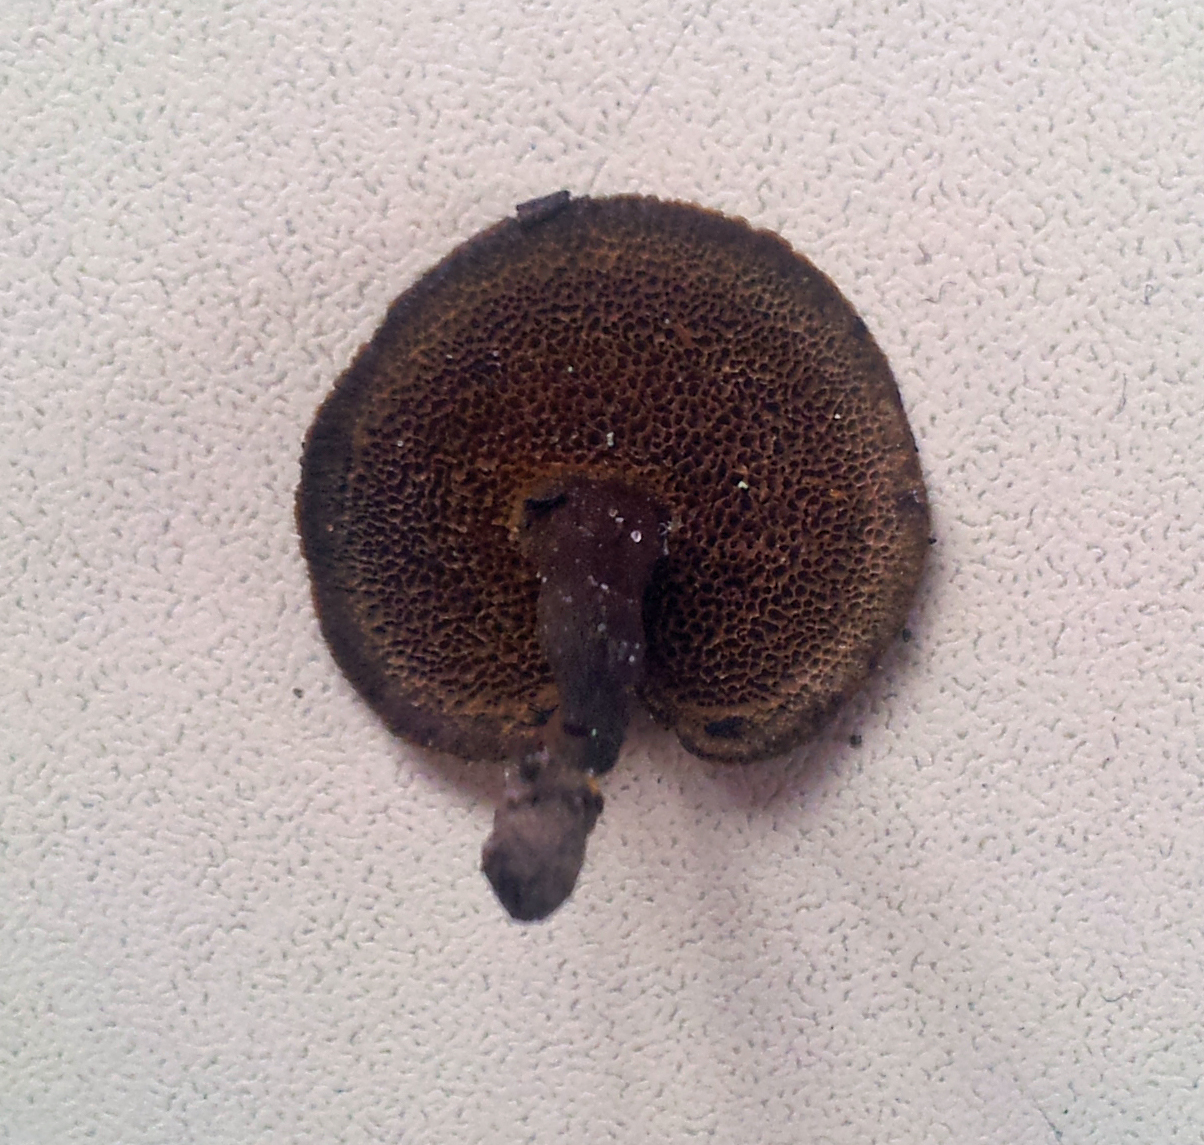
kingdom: Fungi
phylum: Basidiomycota
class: Agaricomycetes
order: Hymenochaetales
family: Hymenochaetaceae
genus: Coltricia
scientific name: Coltricia cinnamomea
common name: Shiny cinnamon polypore
